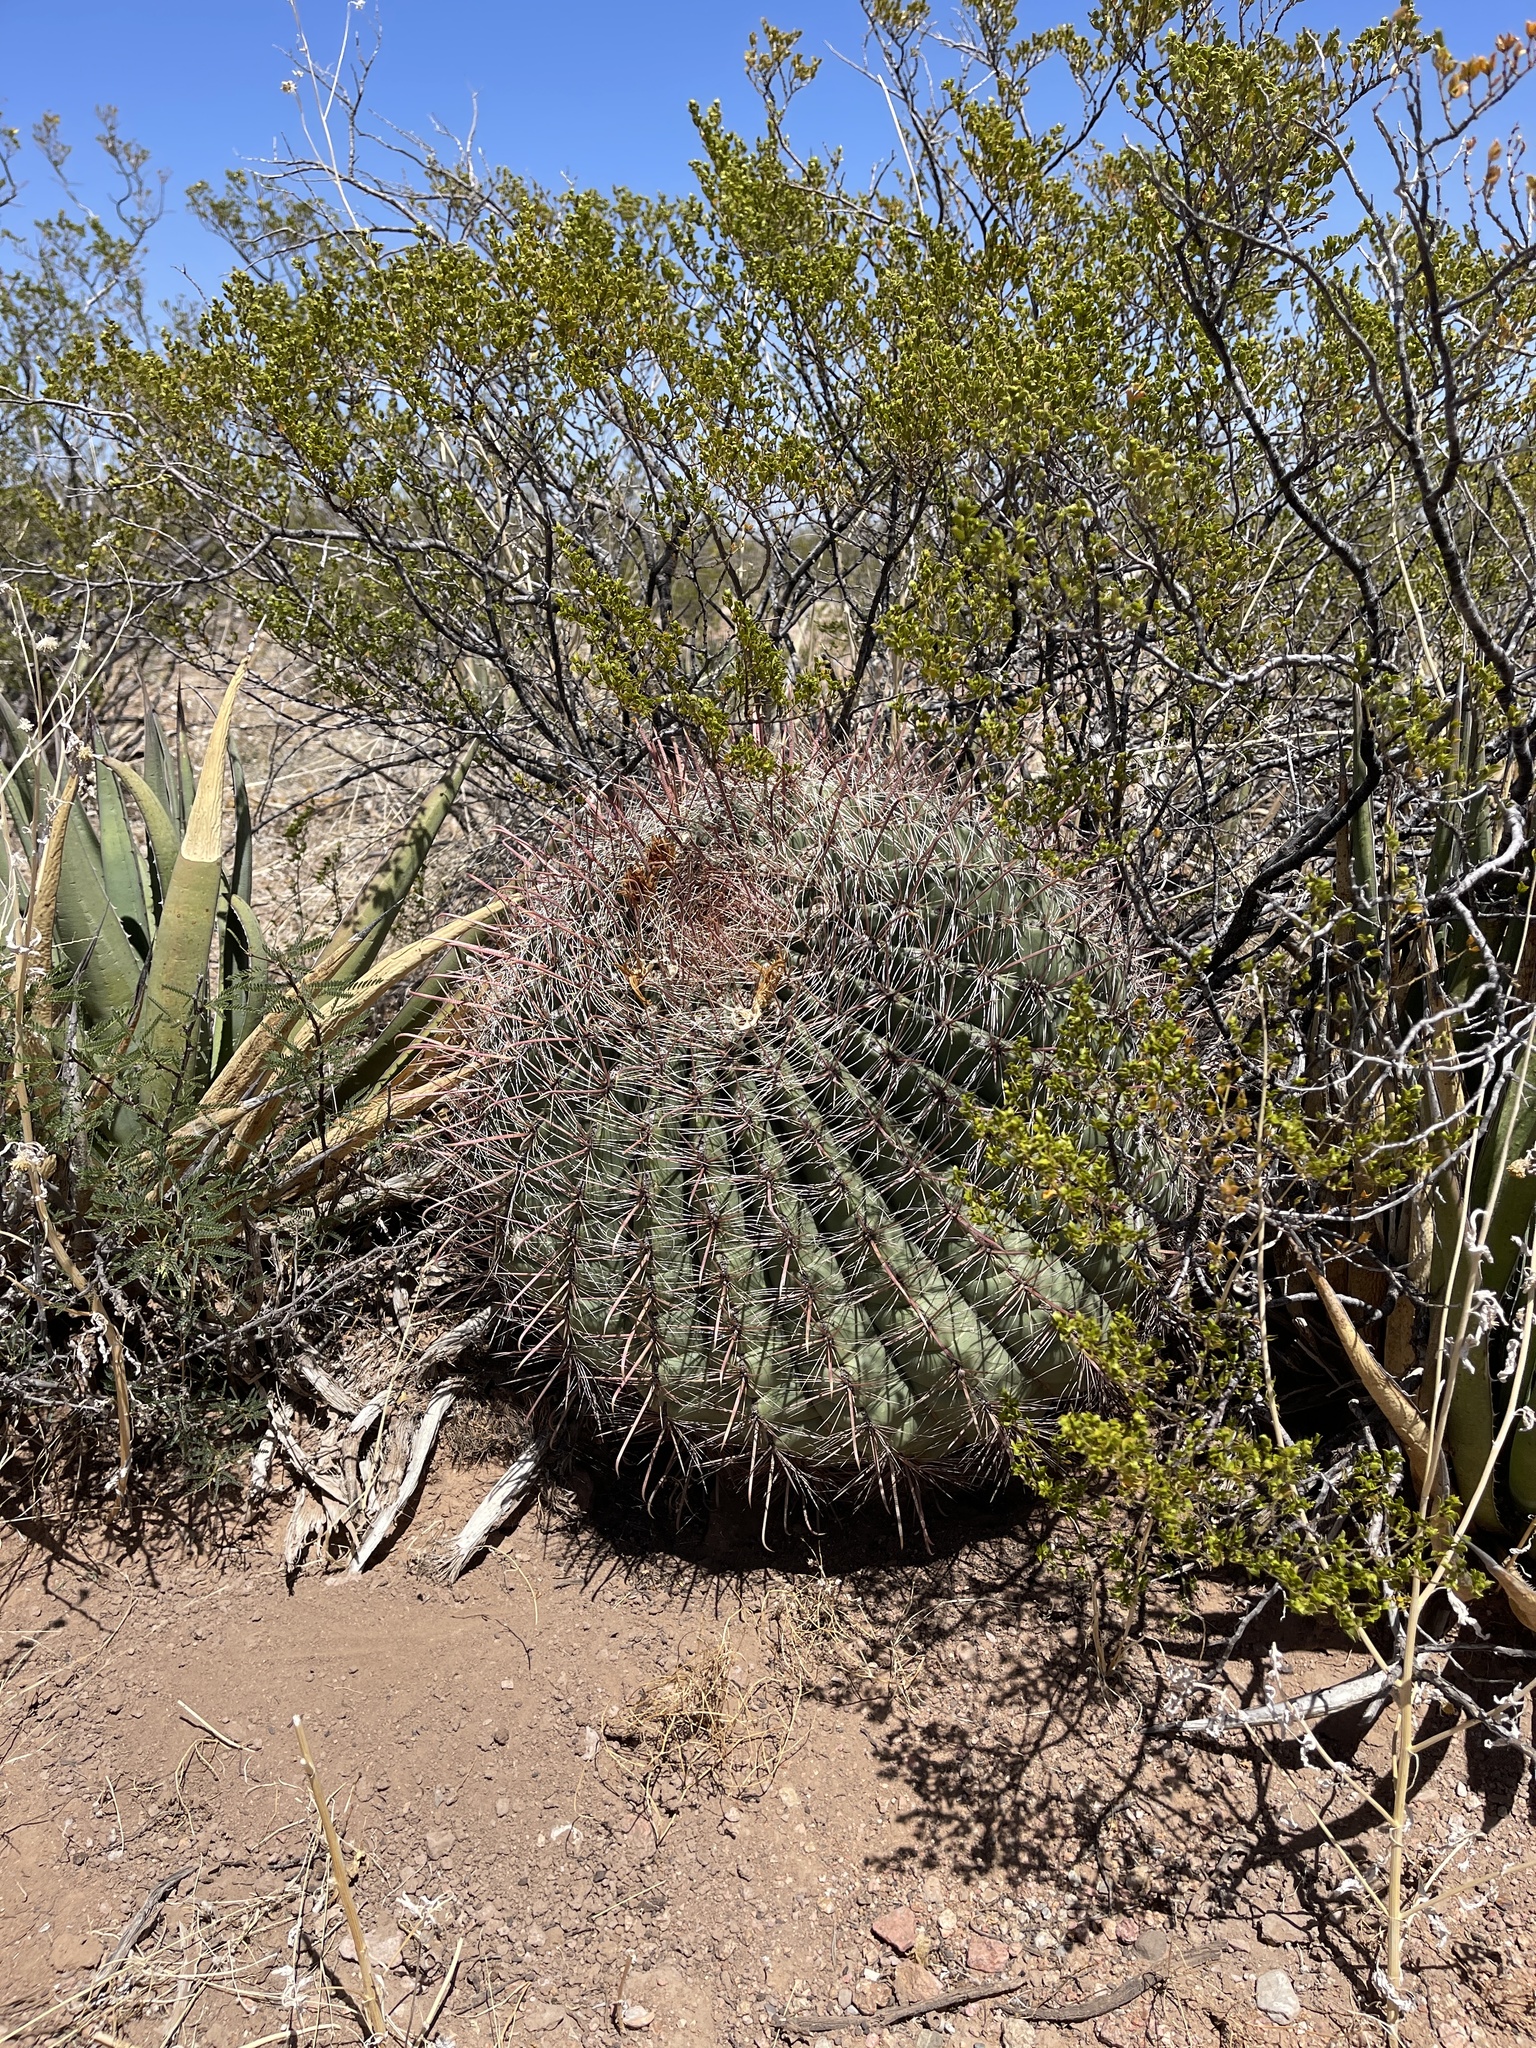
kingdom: Plantae
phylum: Tracheophyta
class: Magnoliopsida
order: Caryophyllales
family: Cactaceae
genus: Ferocactus
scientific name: Ferocactus wislizeni
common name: Candy barrel cactus
